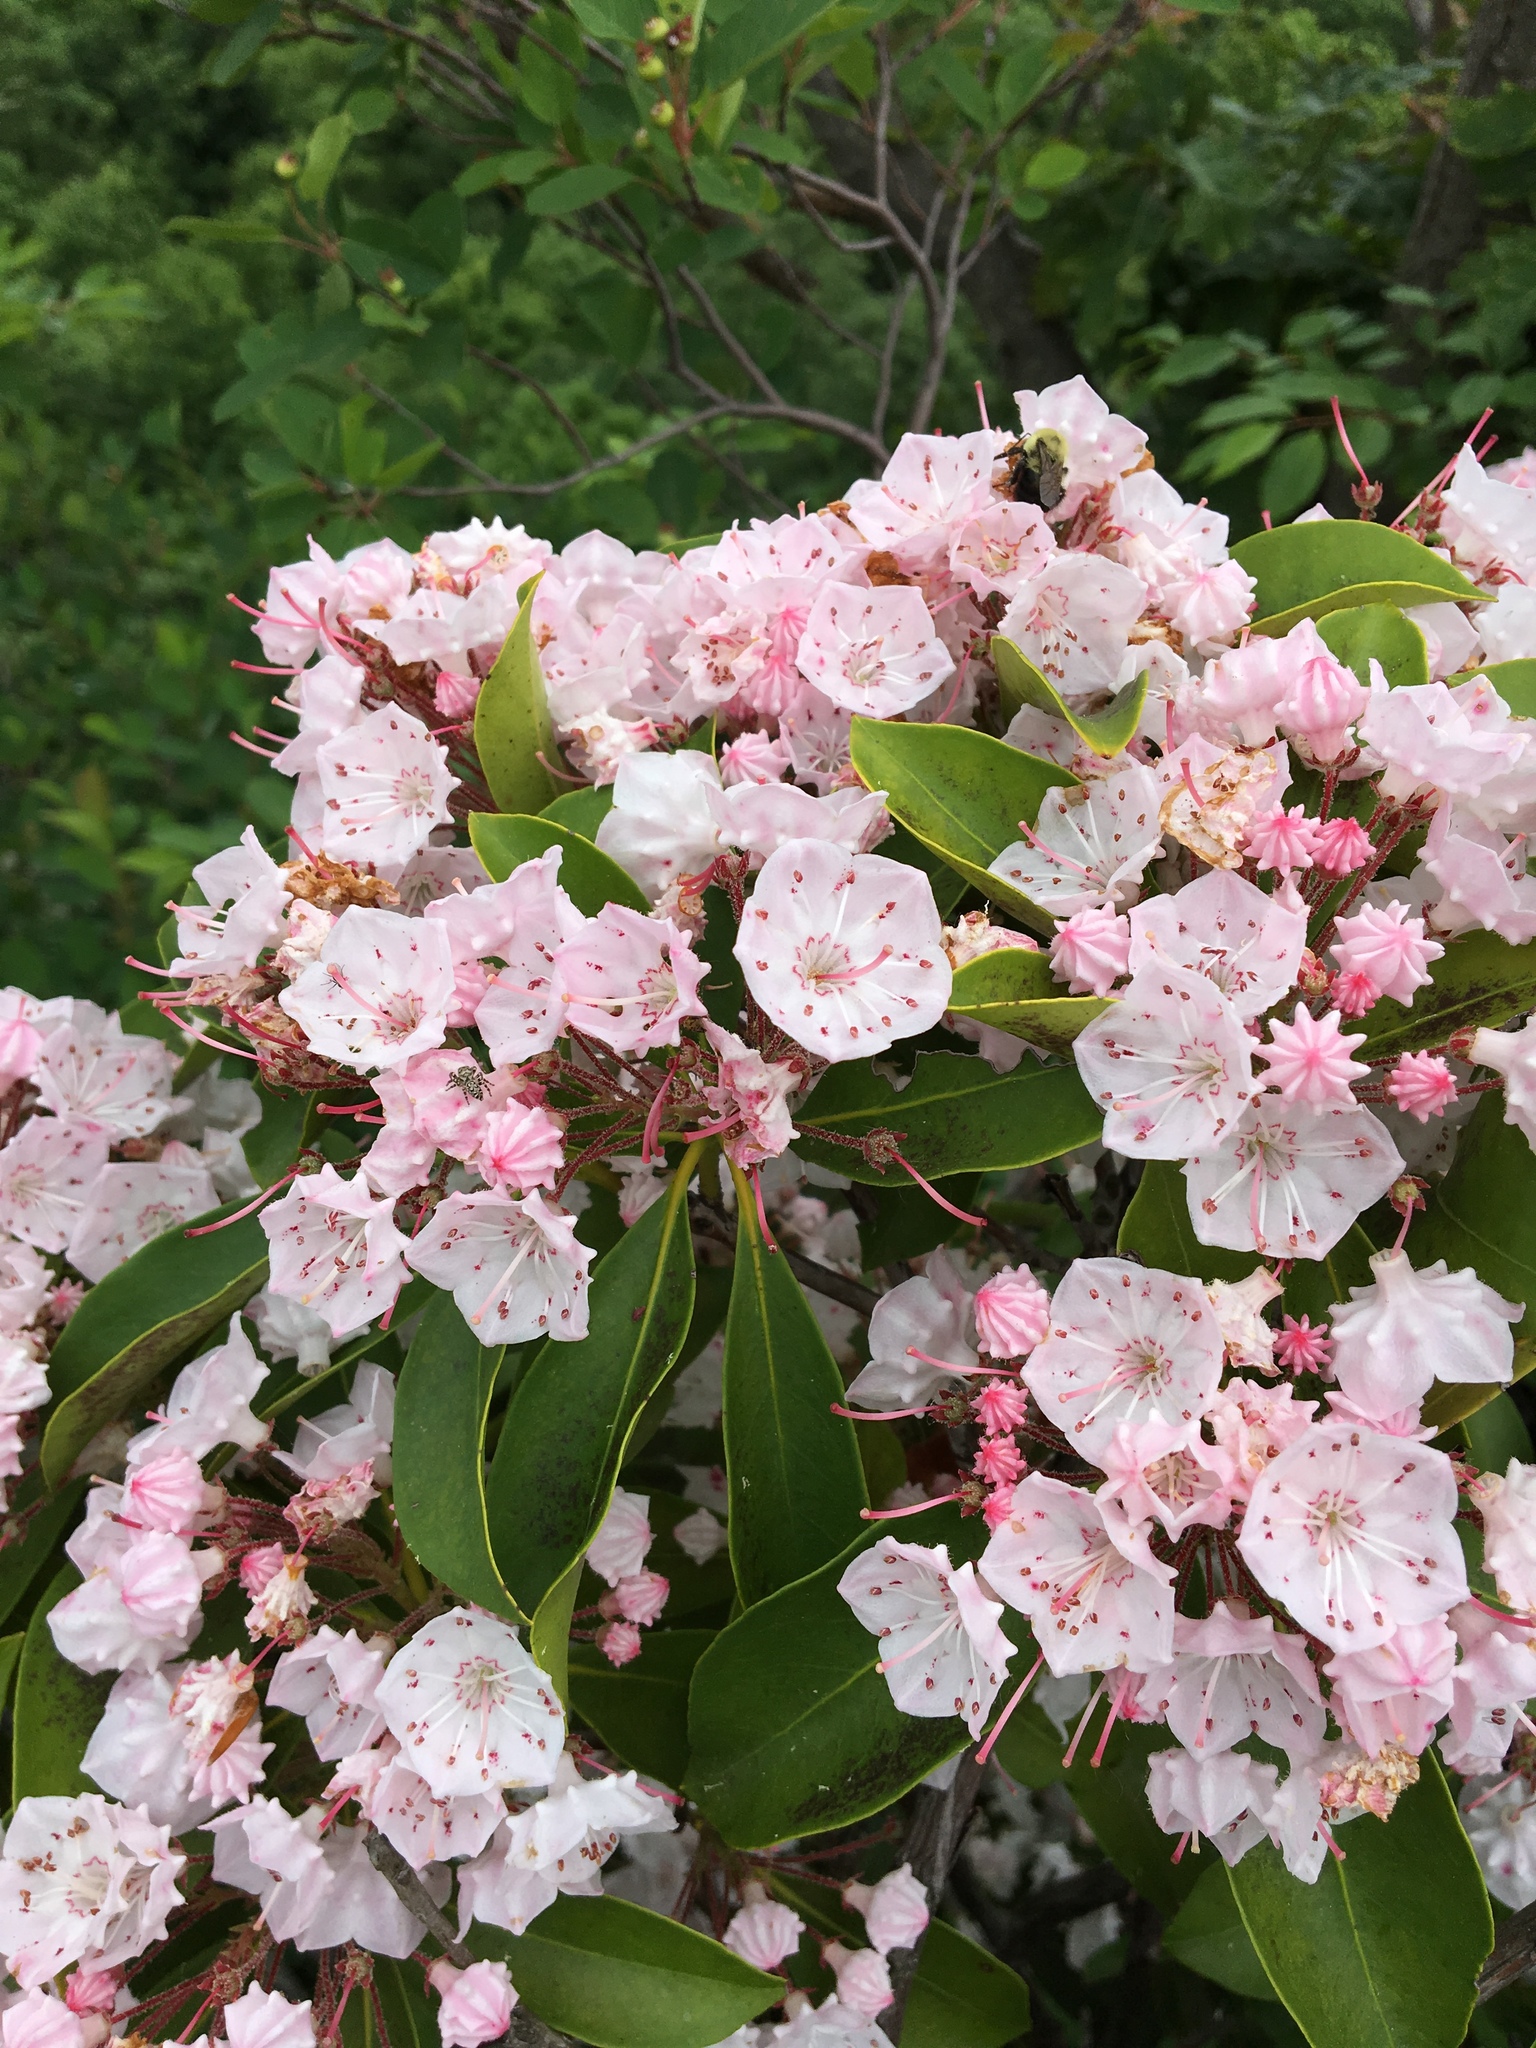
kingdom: Plantae
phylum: Tracheophyta
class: Magnoliopsida
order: Ericales
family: Ericaceae
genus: Kalmia
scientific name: Kalmia latifolia
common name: Mountain-laurel
